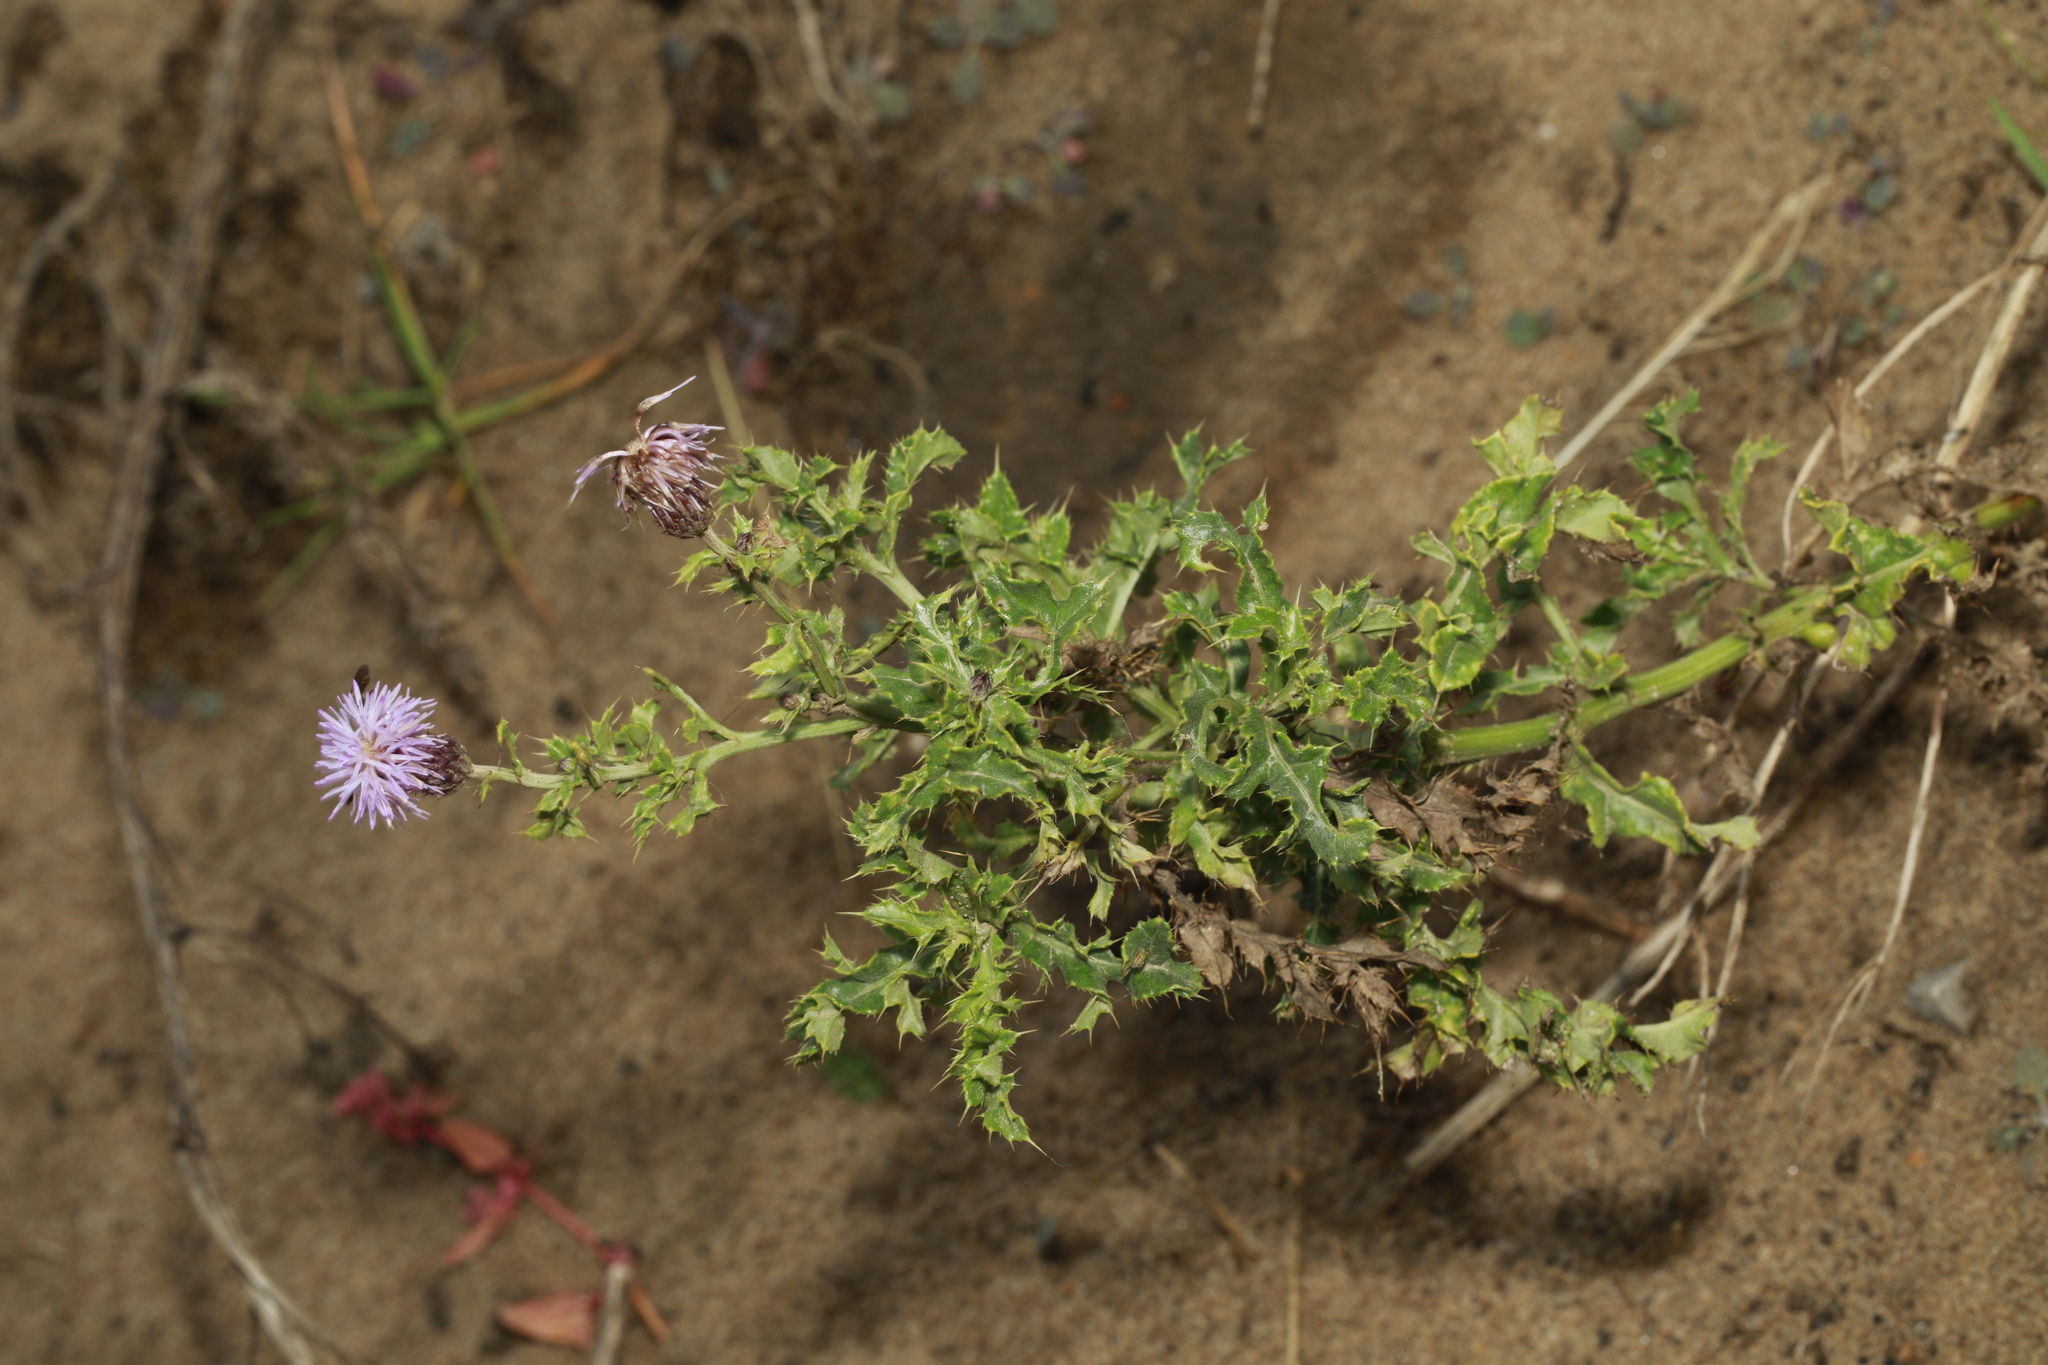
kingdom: Plantae
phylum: Tracheophyta
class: Magnoliopsida
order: Asterales
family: Asteraceae
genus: Cirsium
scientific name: Cirsium arvense
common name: Creeping thistle
